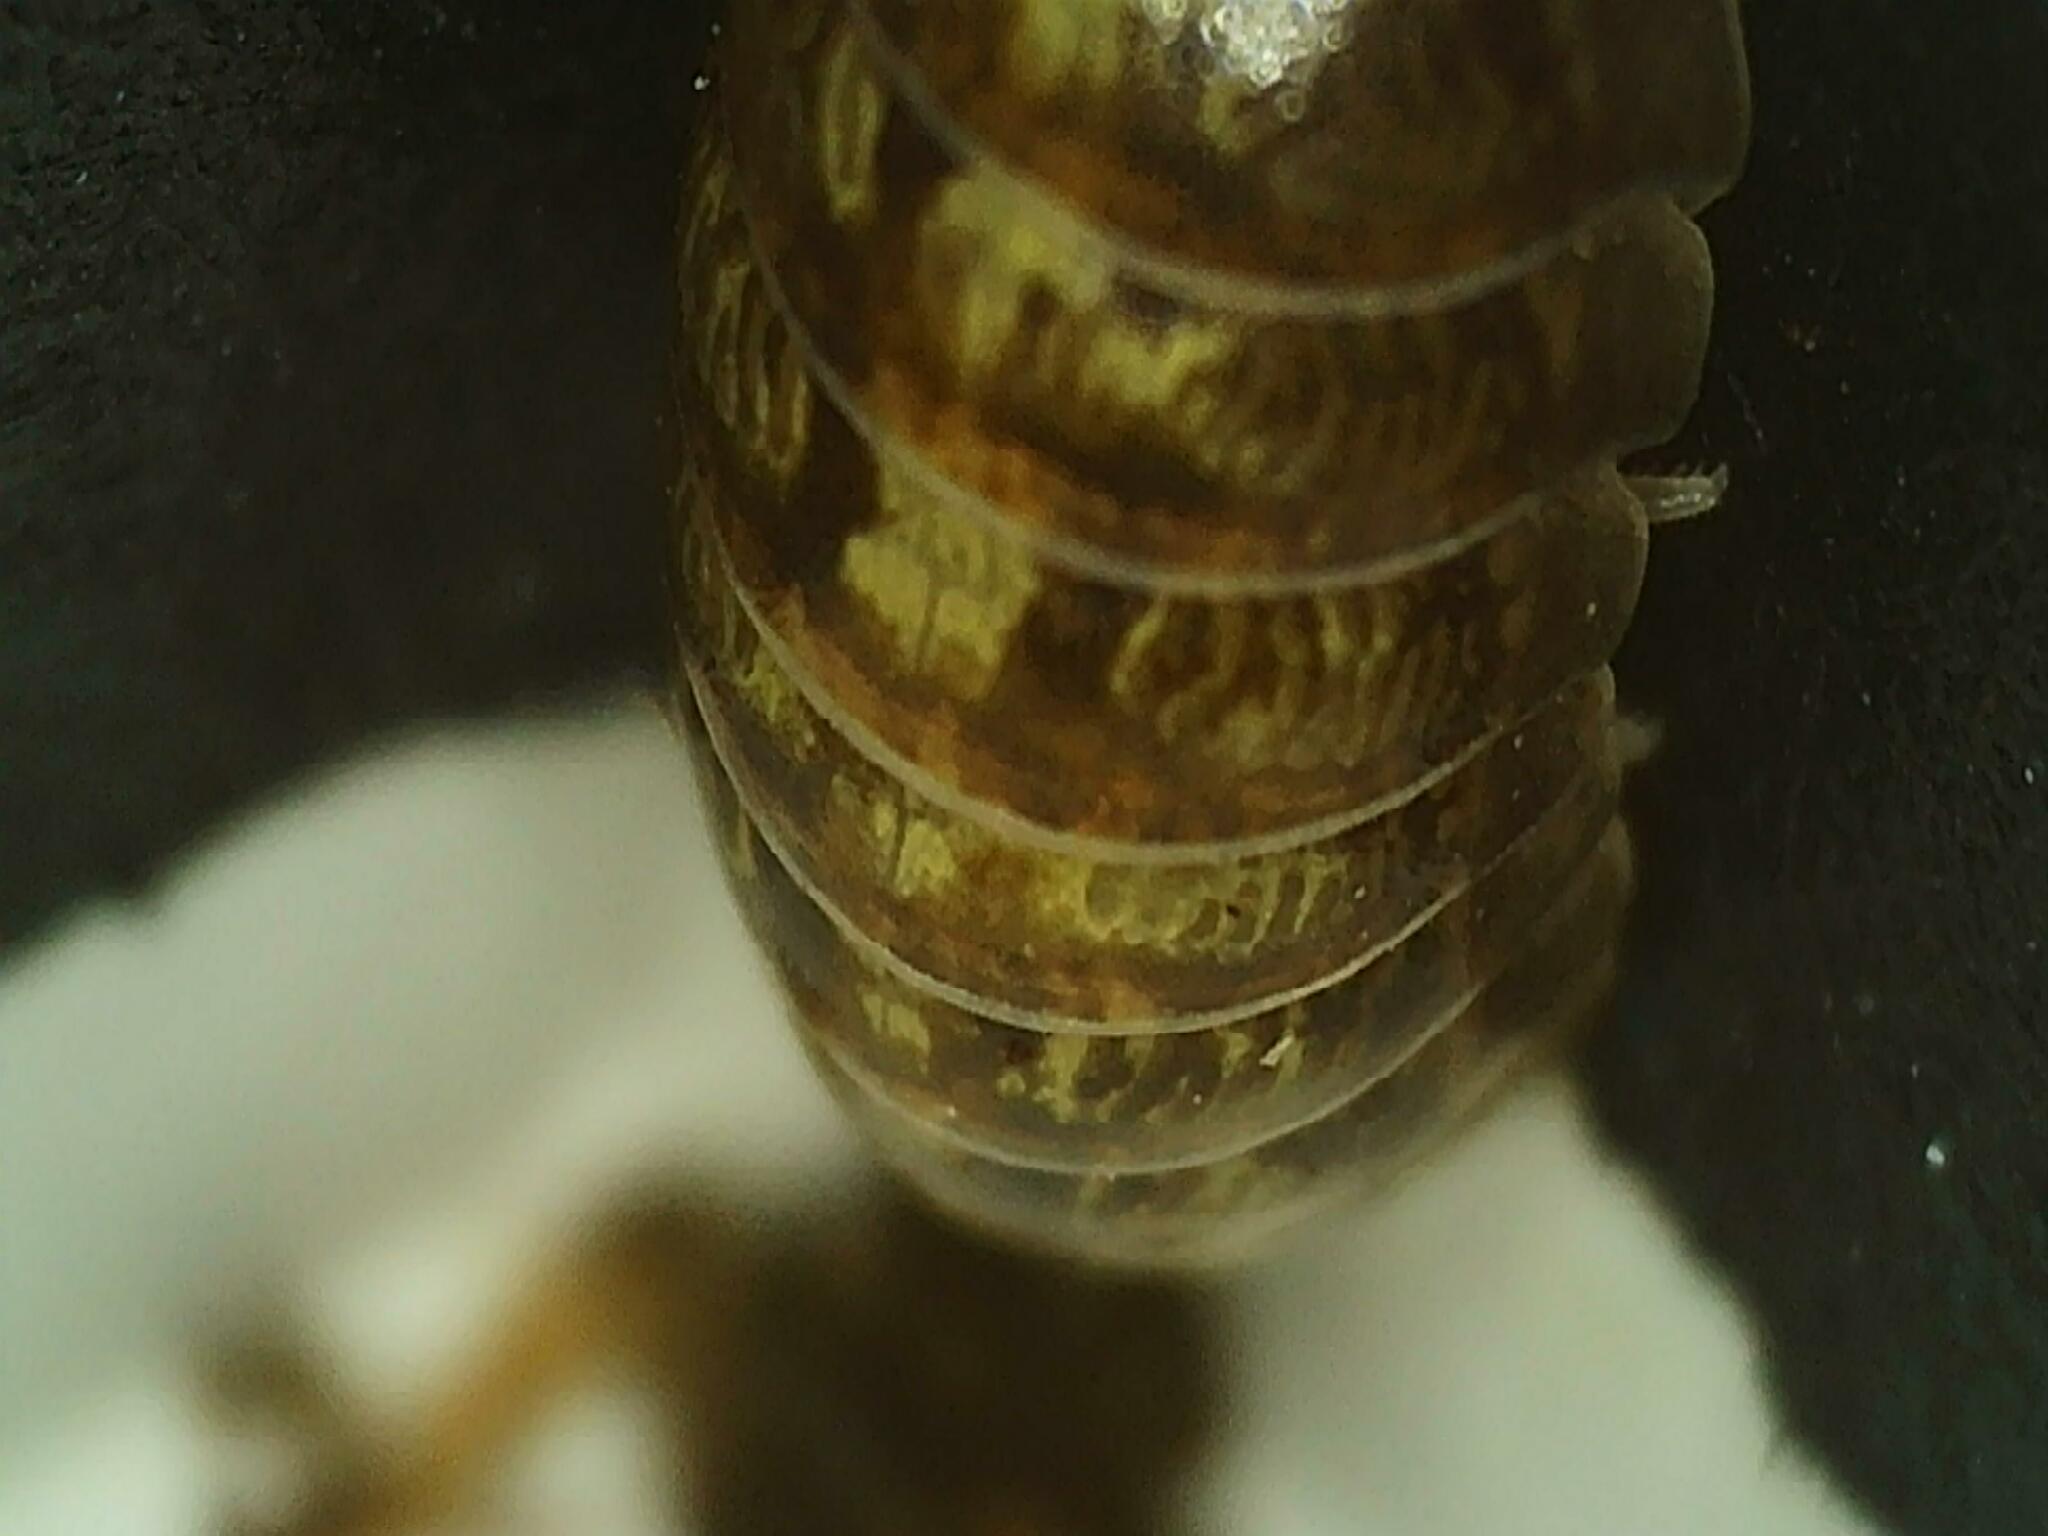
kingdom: Animalia
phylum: Arthropoda
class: Malacostraca
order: Isopoda
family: Armadillidiidae
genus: Armadillidium
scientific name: Armadillidium vulgare
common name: Common pill woodlouse
